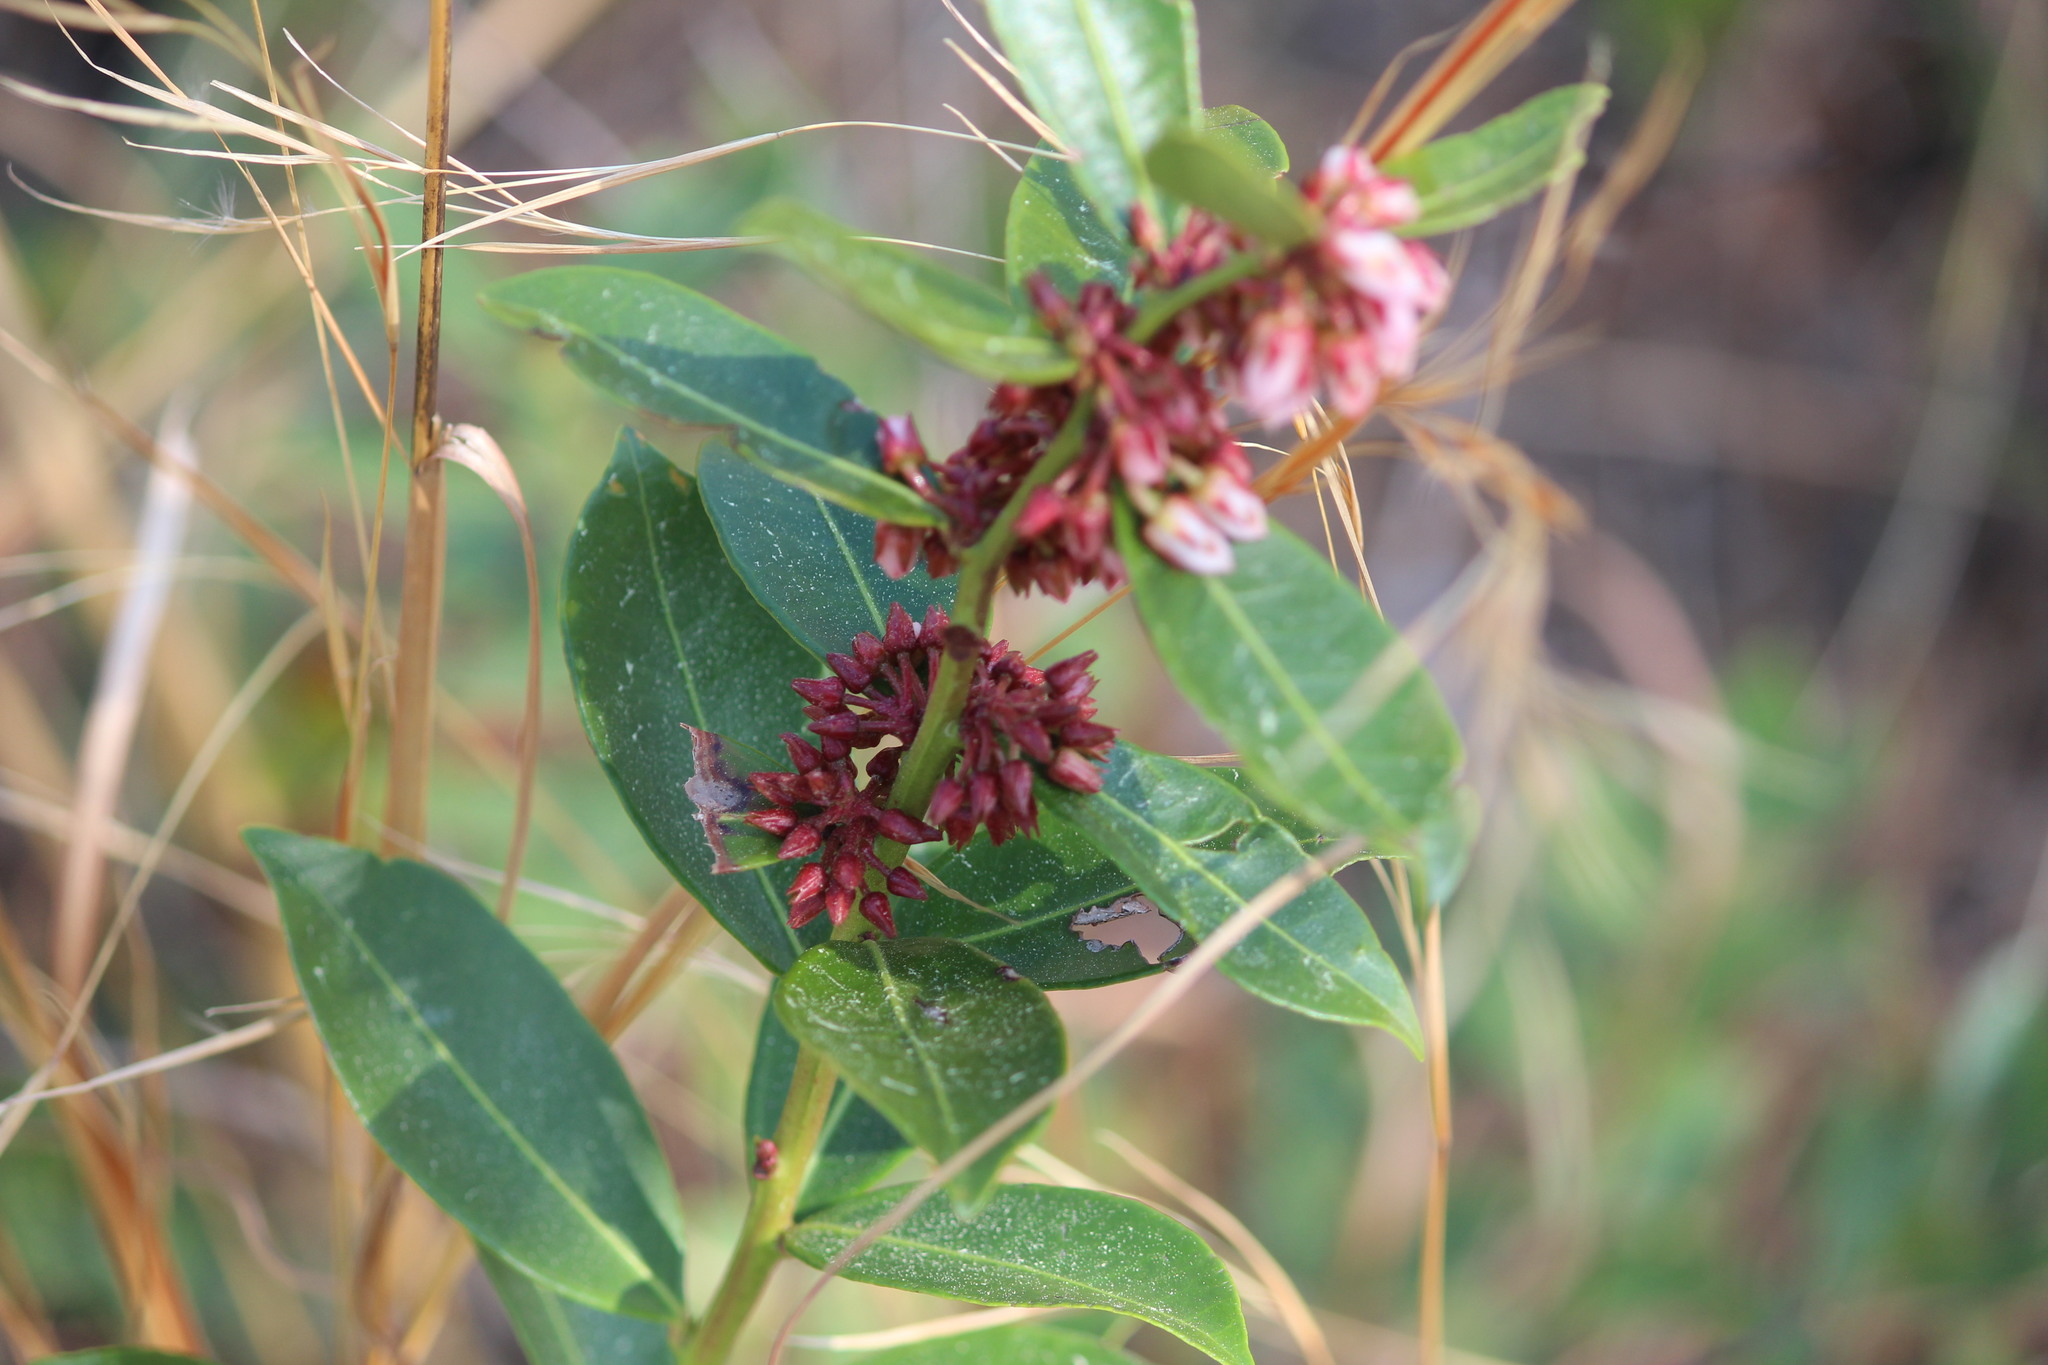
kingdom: Plantae
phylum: Tracheophyta
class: Magnoliopsida
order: Ericales
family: Ericaceae
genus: Lyonia
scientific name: Lyonia lucida
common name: Fetterbush
